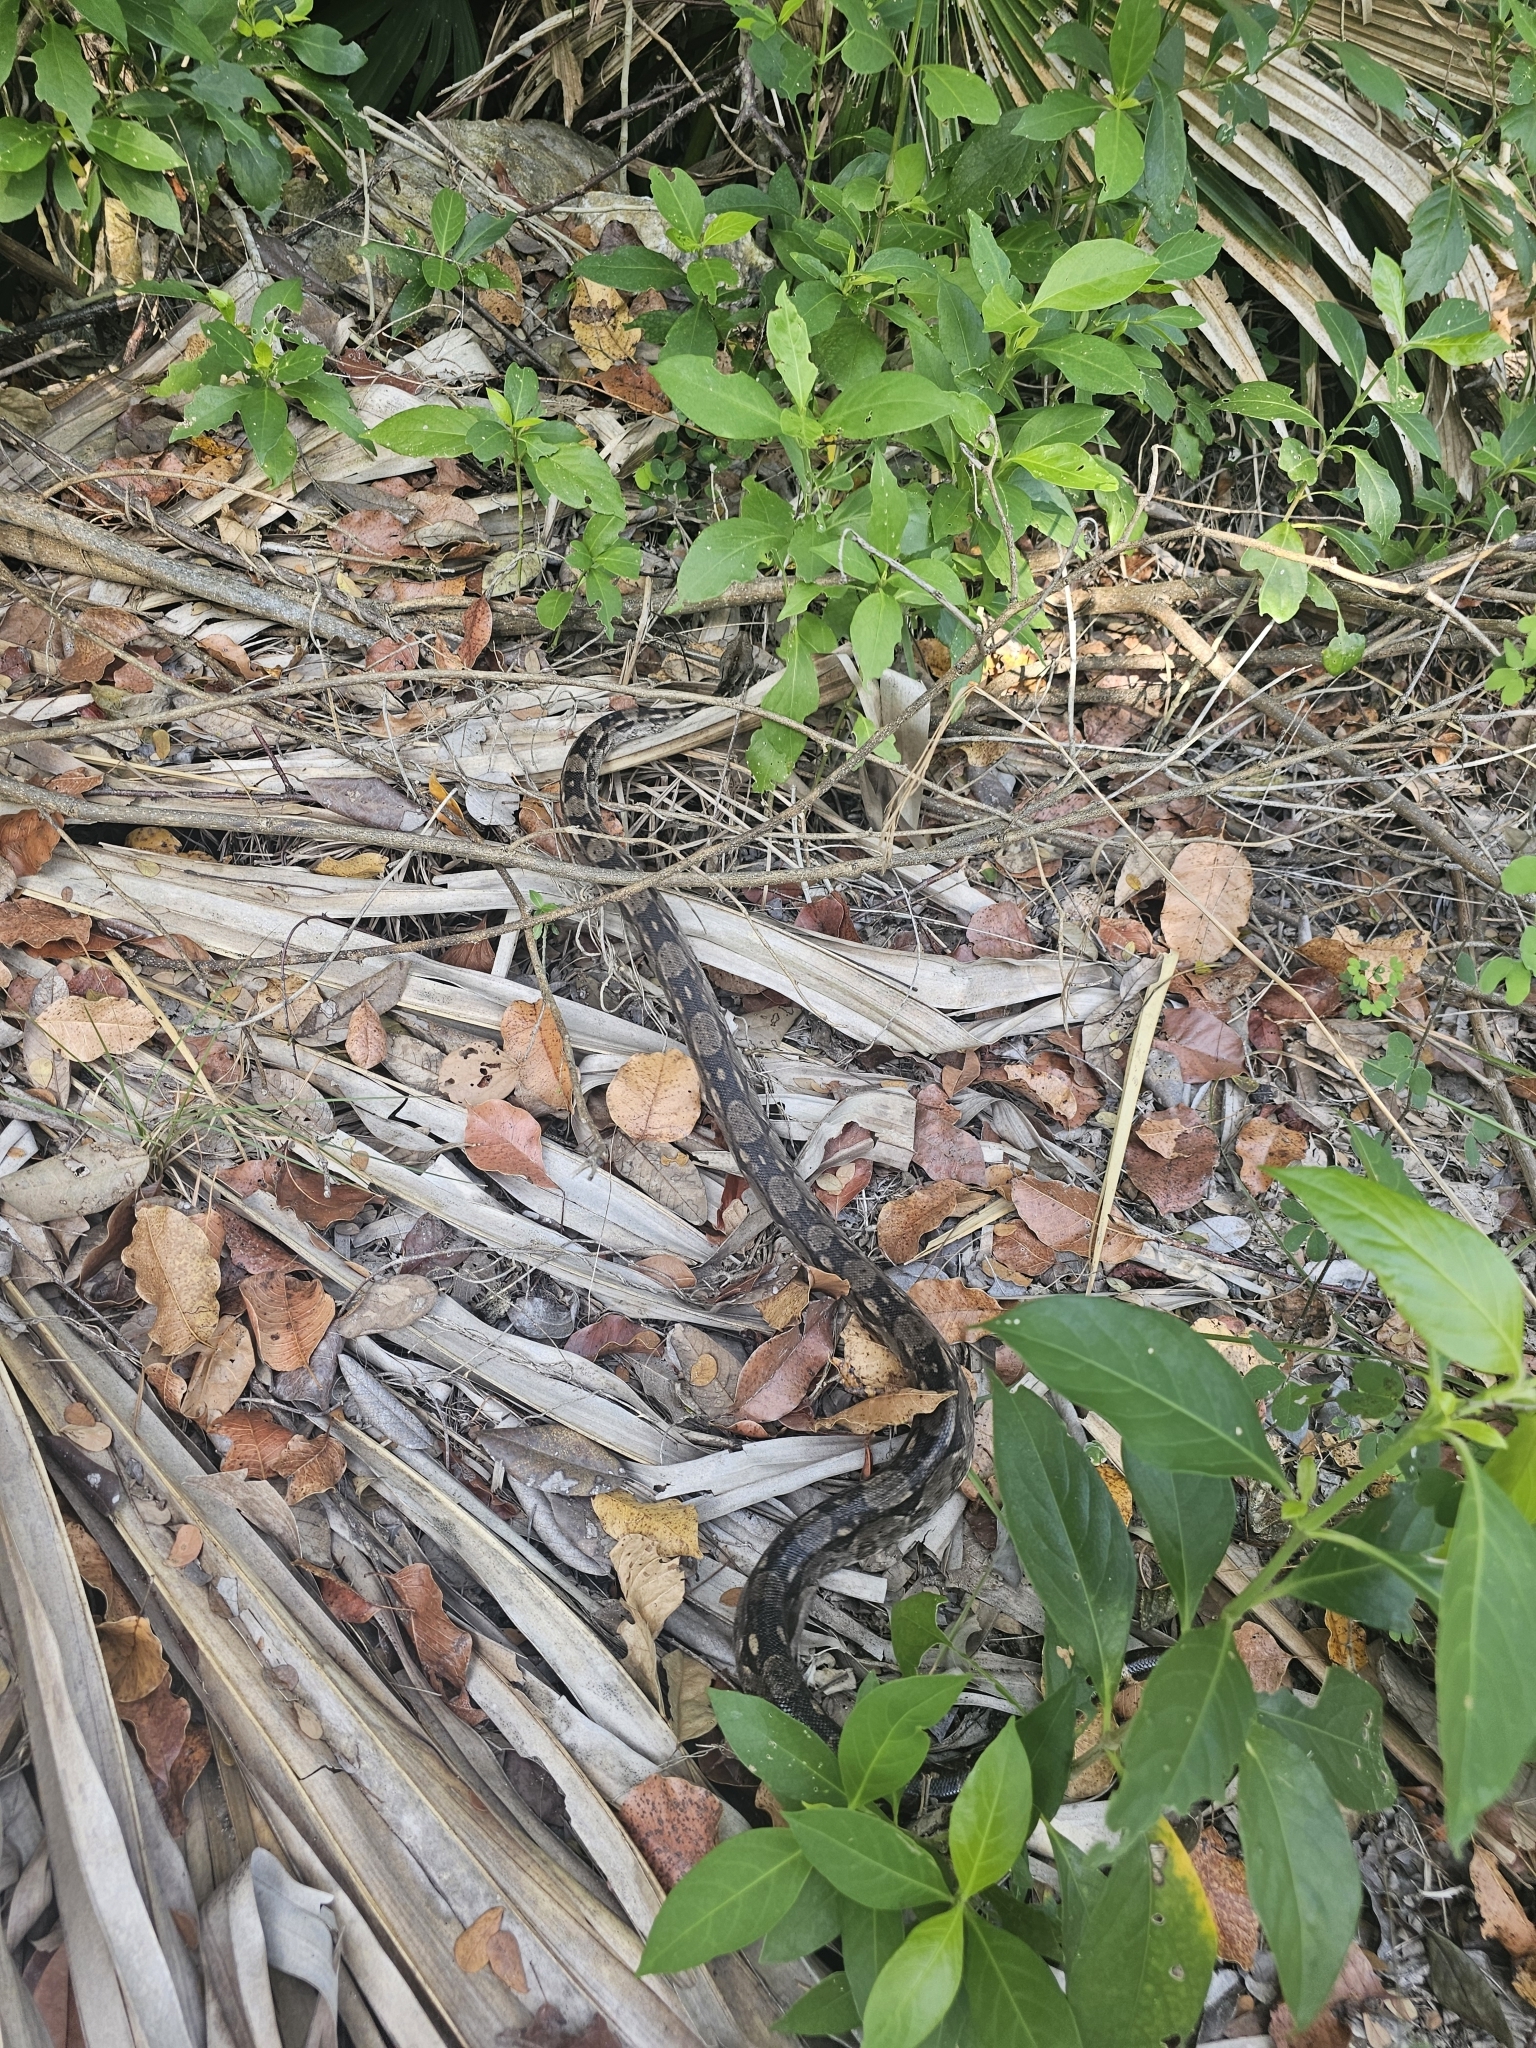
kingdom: Animalia
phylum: Chordata
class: Squamata
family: Boidae
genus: Boa
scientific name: Boa imperator
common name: Central american boa
